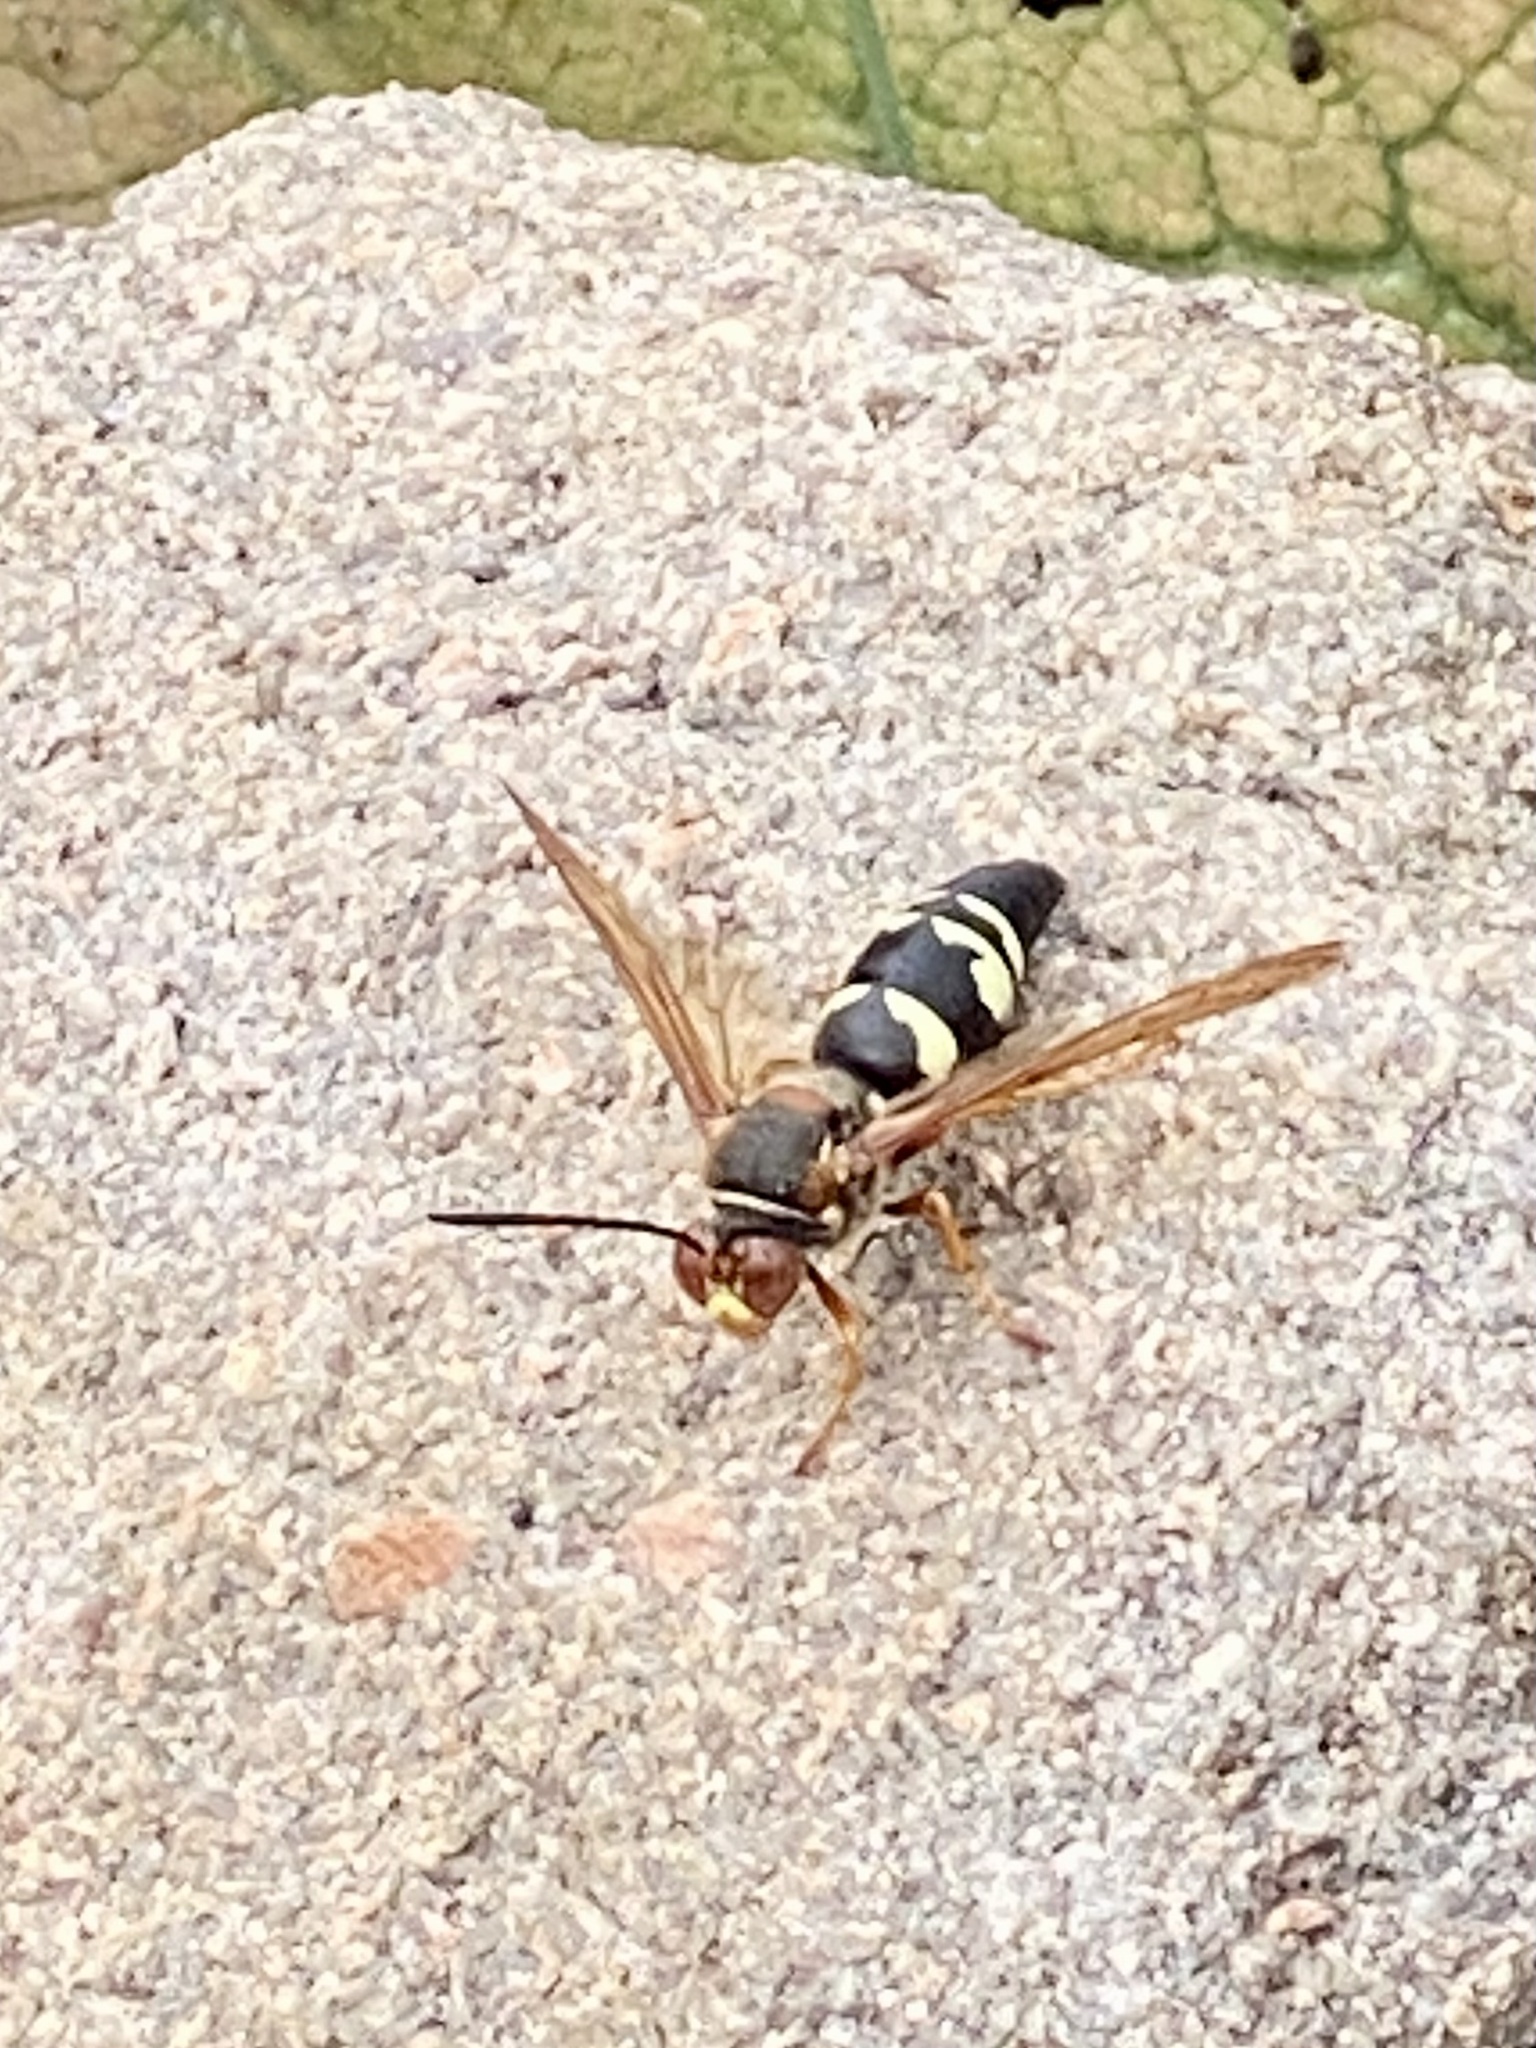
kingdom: Animalia
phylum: Arthropoda
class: Insecta
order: Hymenoptera
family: Crabronidae
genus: Sphecius
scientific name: Sphecius speciosus
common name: Cicada killer
